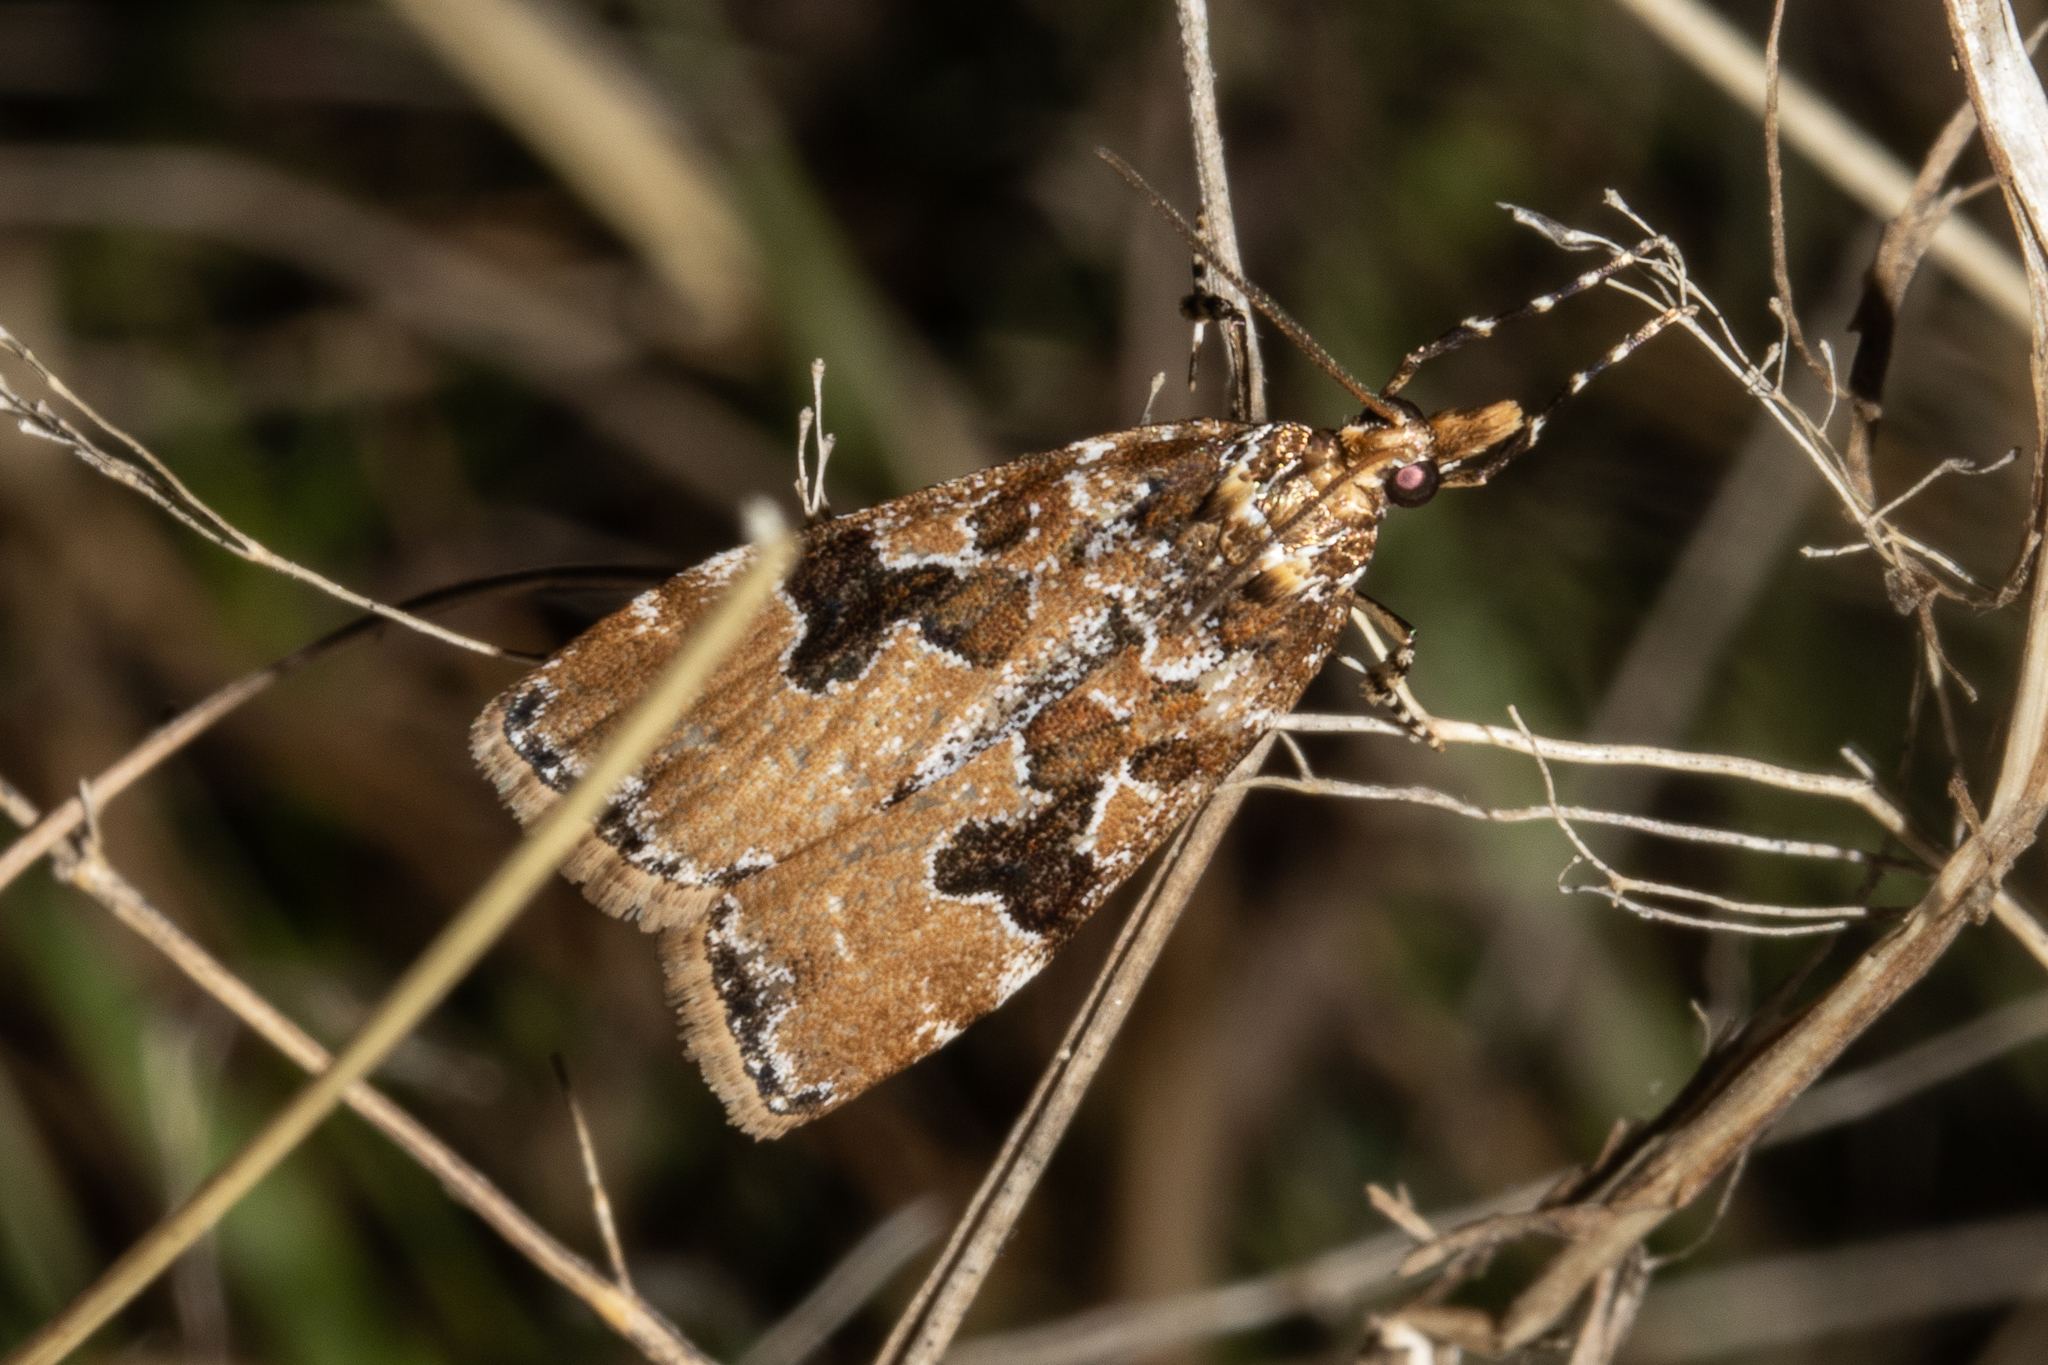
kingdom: Animalia
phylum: Arthropoda
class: Insecta
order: Lepidoptera
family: Crambidae
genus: Scoparia
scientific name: Scoparia ustimacula
